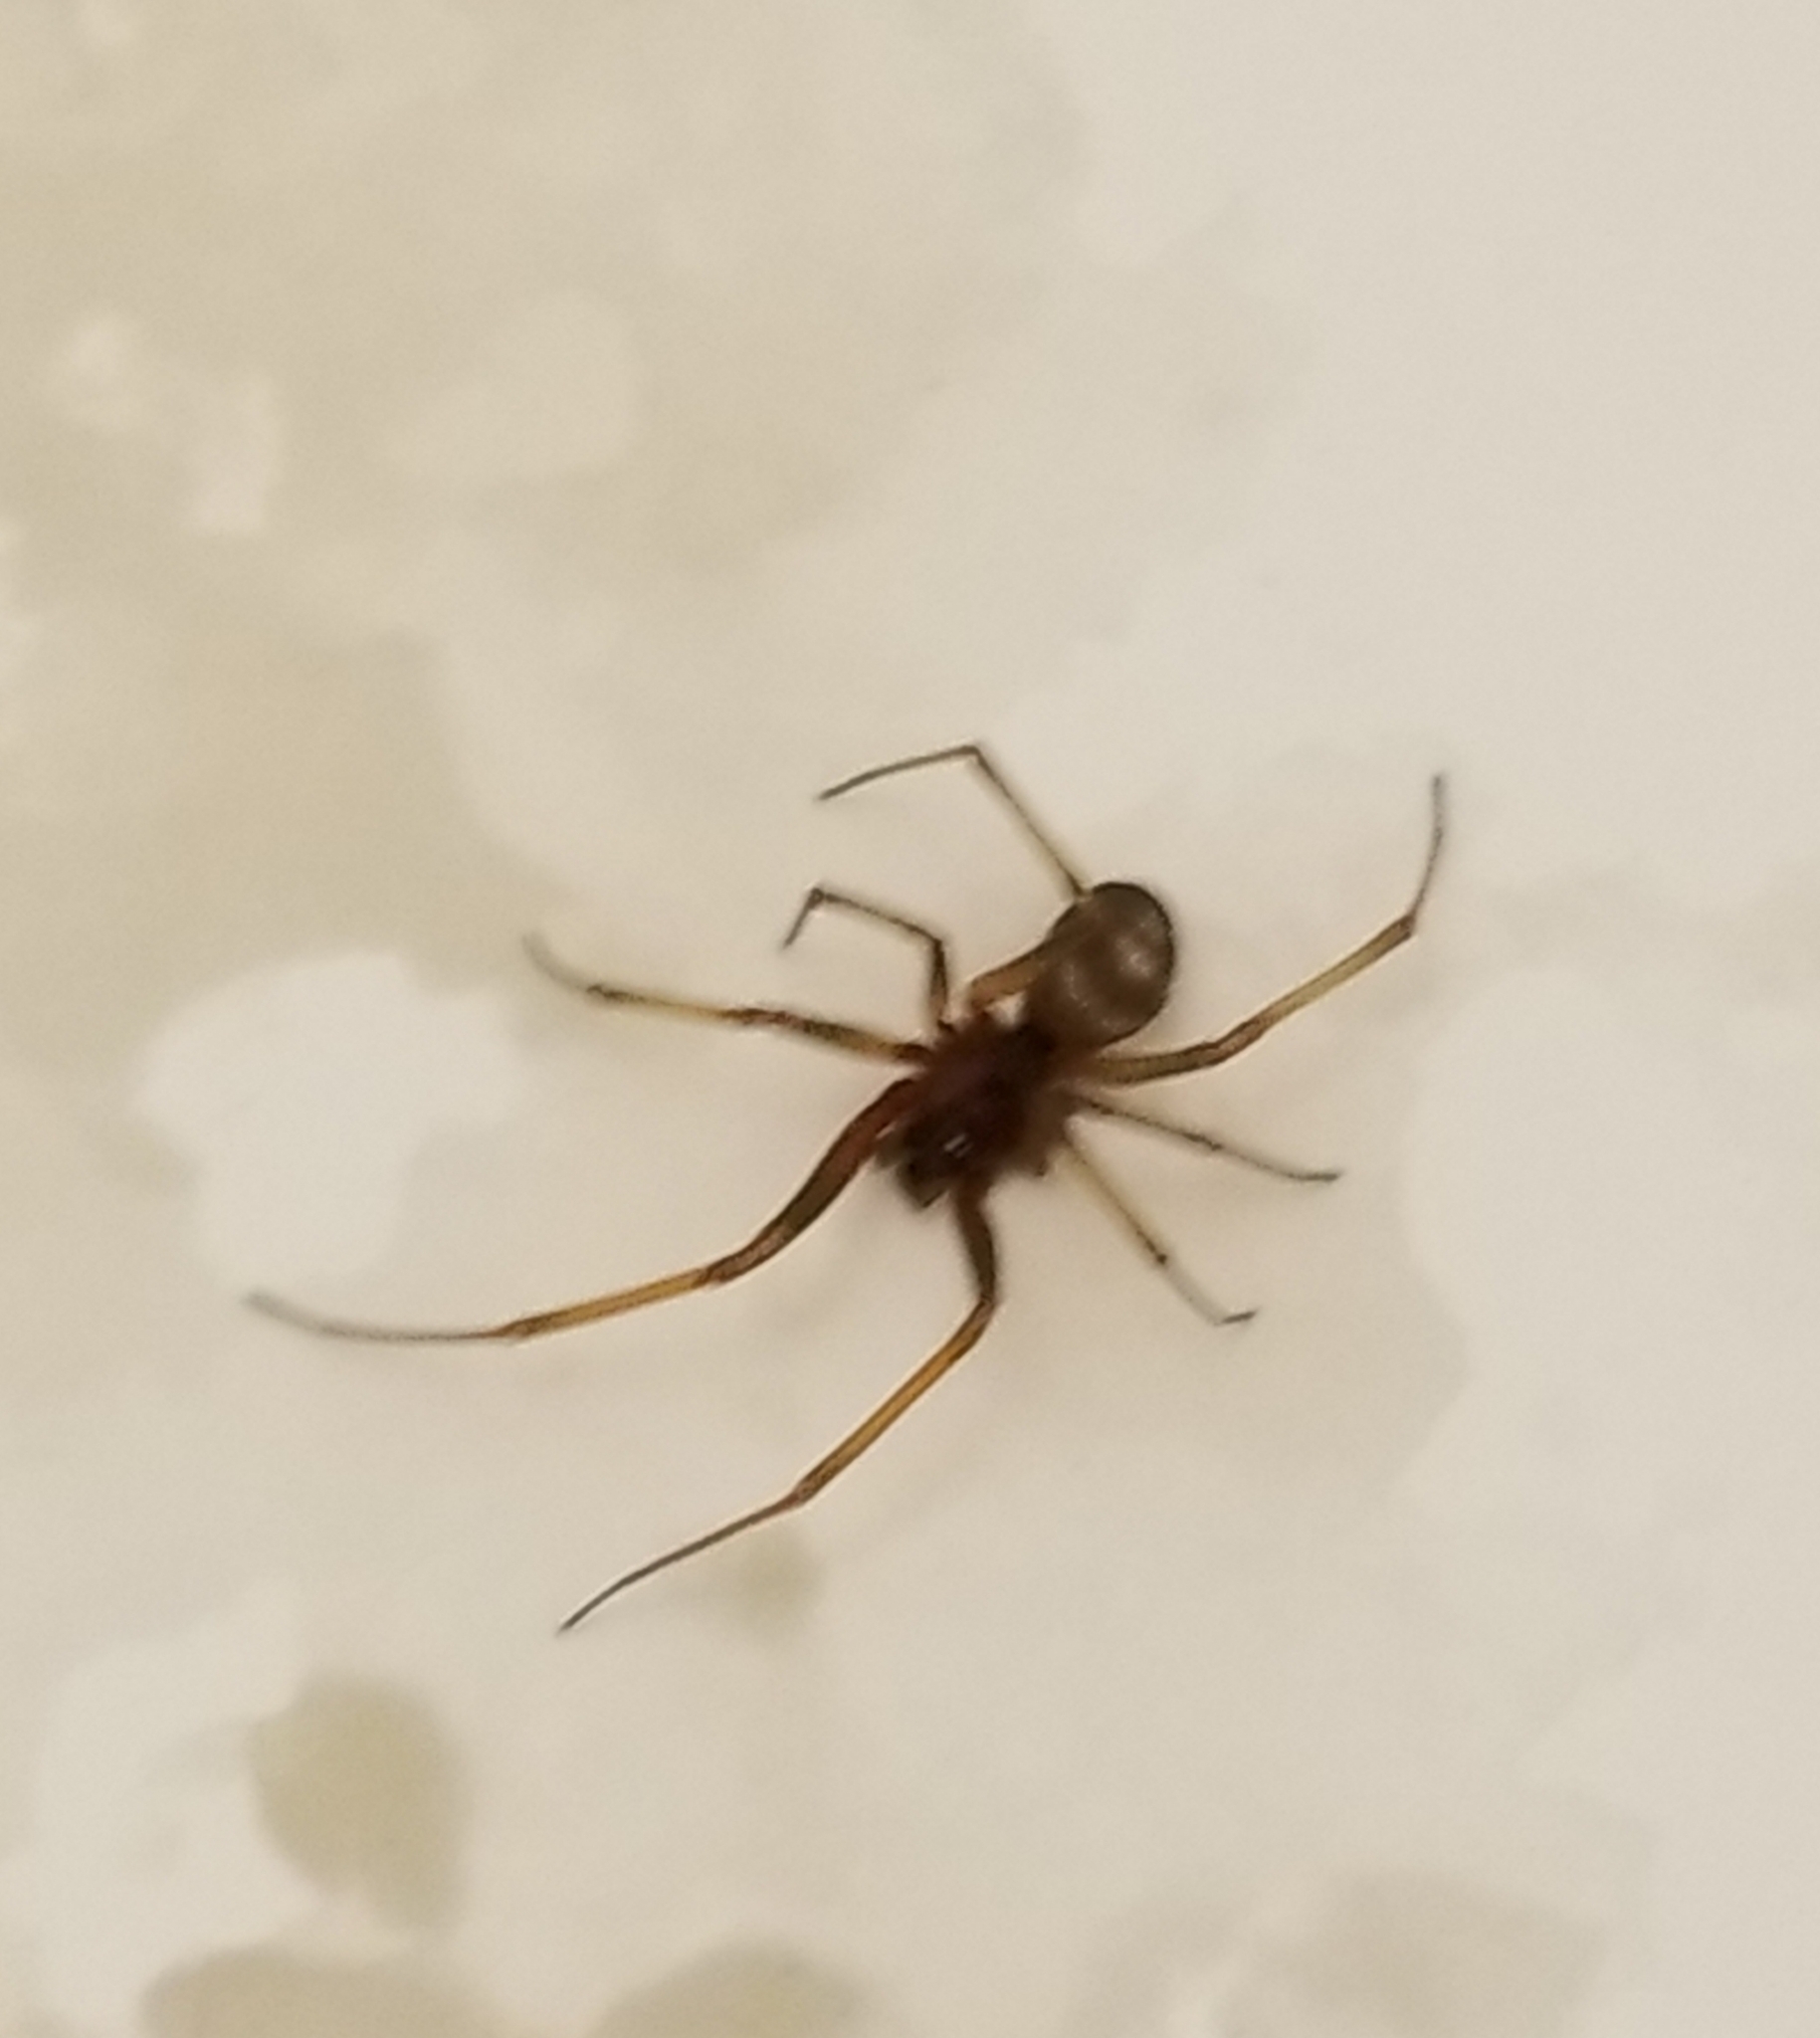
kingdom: Animalia
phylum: Arthropoda
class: Arachnida
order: Araneae
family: Theridiidae
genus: Steatoda
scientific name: Steatoda grossa
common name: False black widow
